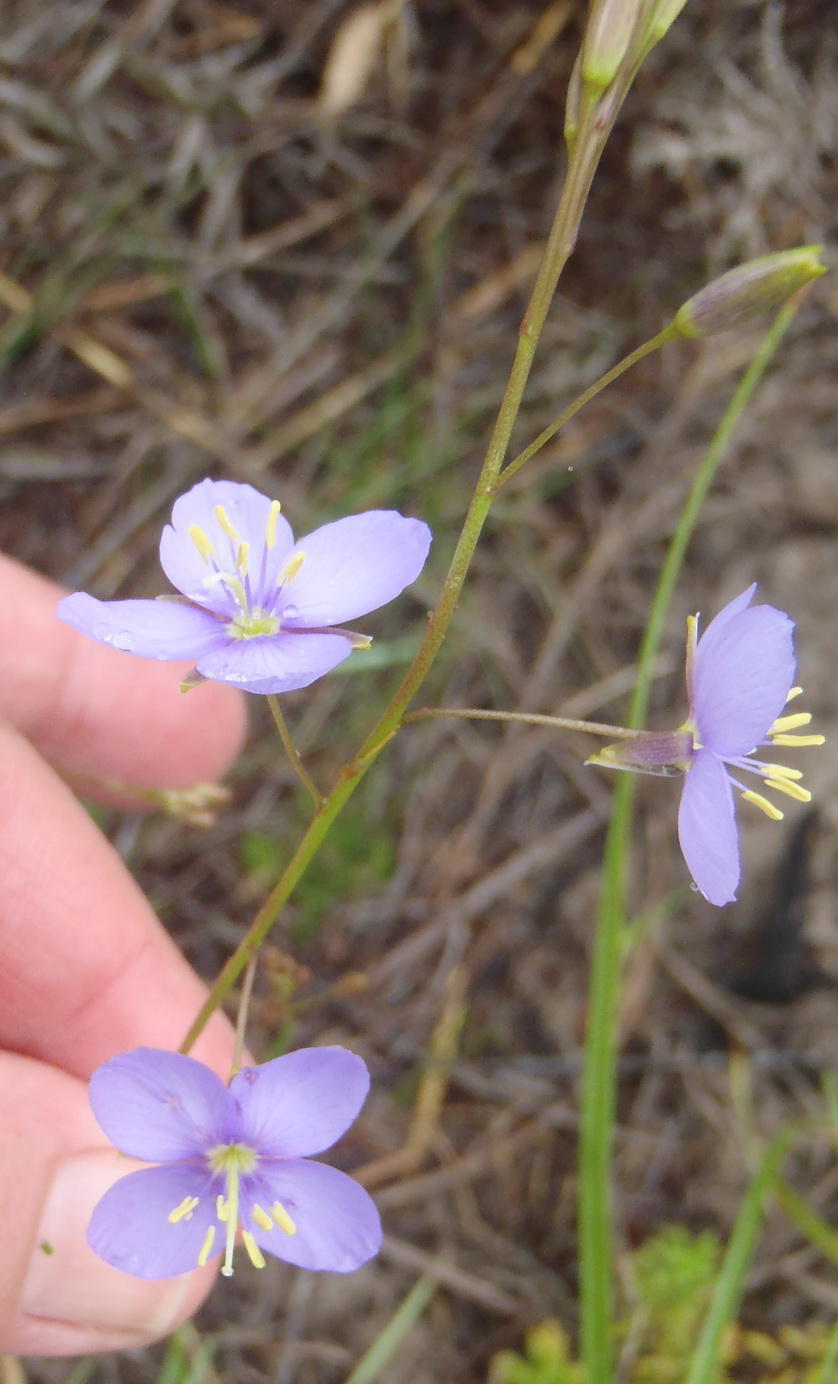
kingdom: Plantae
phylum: Tracheophyta
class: Magnoliopsida
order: Brassicales
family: Brassicaceae
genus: Heliophila
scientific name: Heliophila subulata
